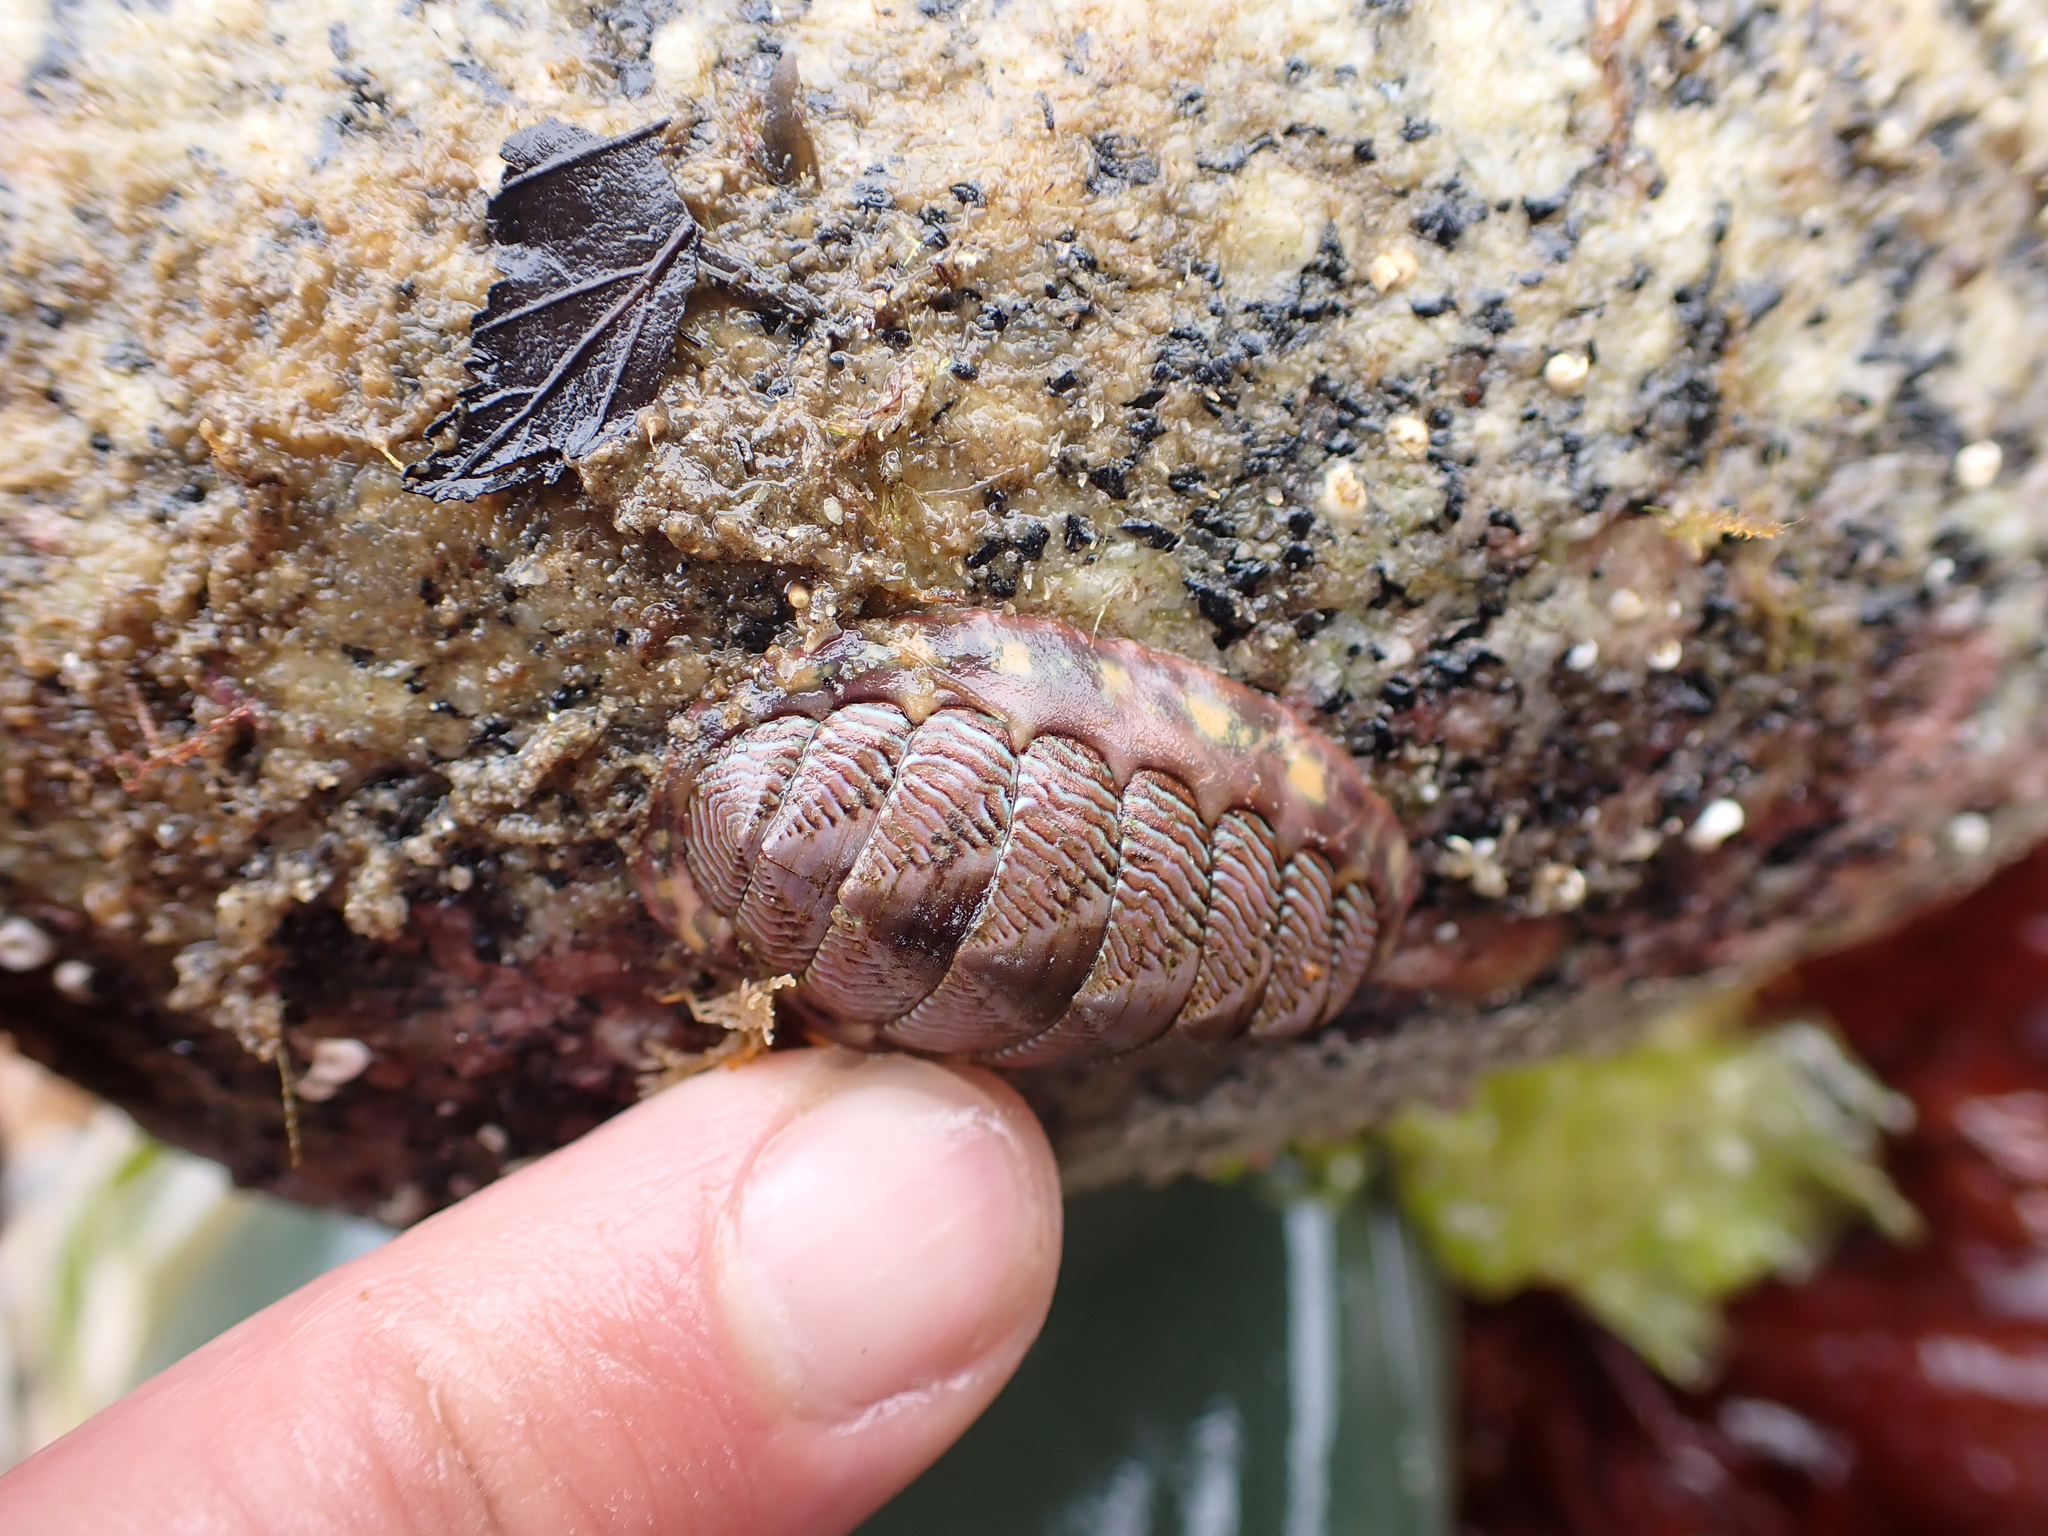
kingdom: Animalia
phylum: Mollusca
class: Polyplacophora
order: Chitonida
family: Tonicellidae
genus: Tonicella
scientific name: Tonicella lineata
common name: Lined chiton
